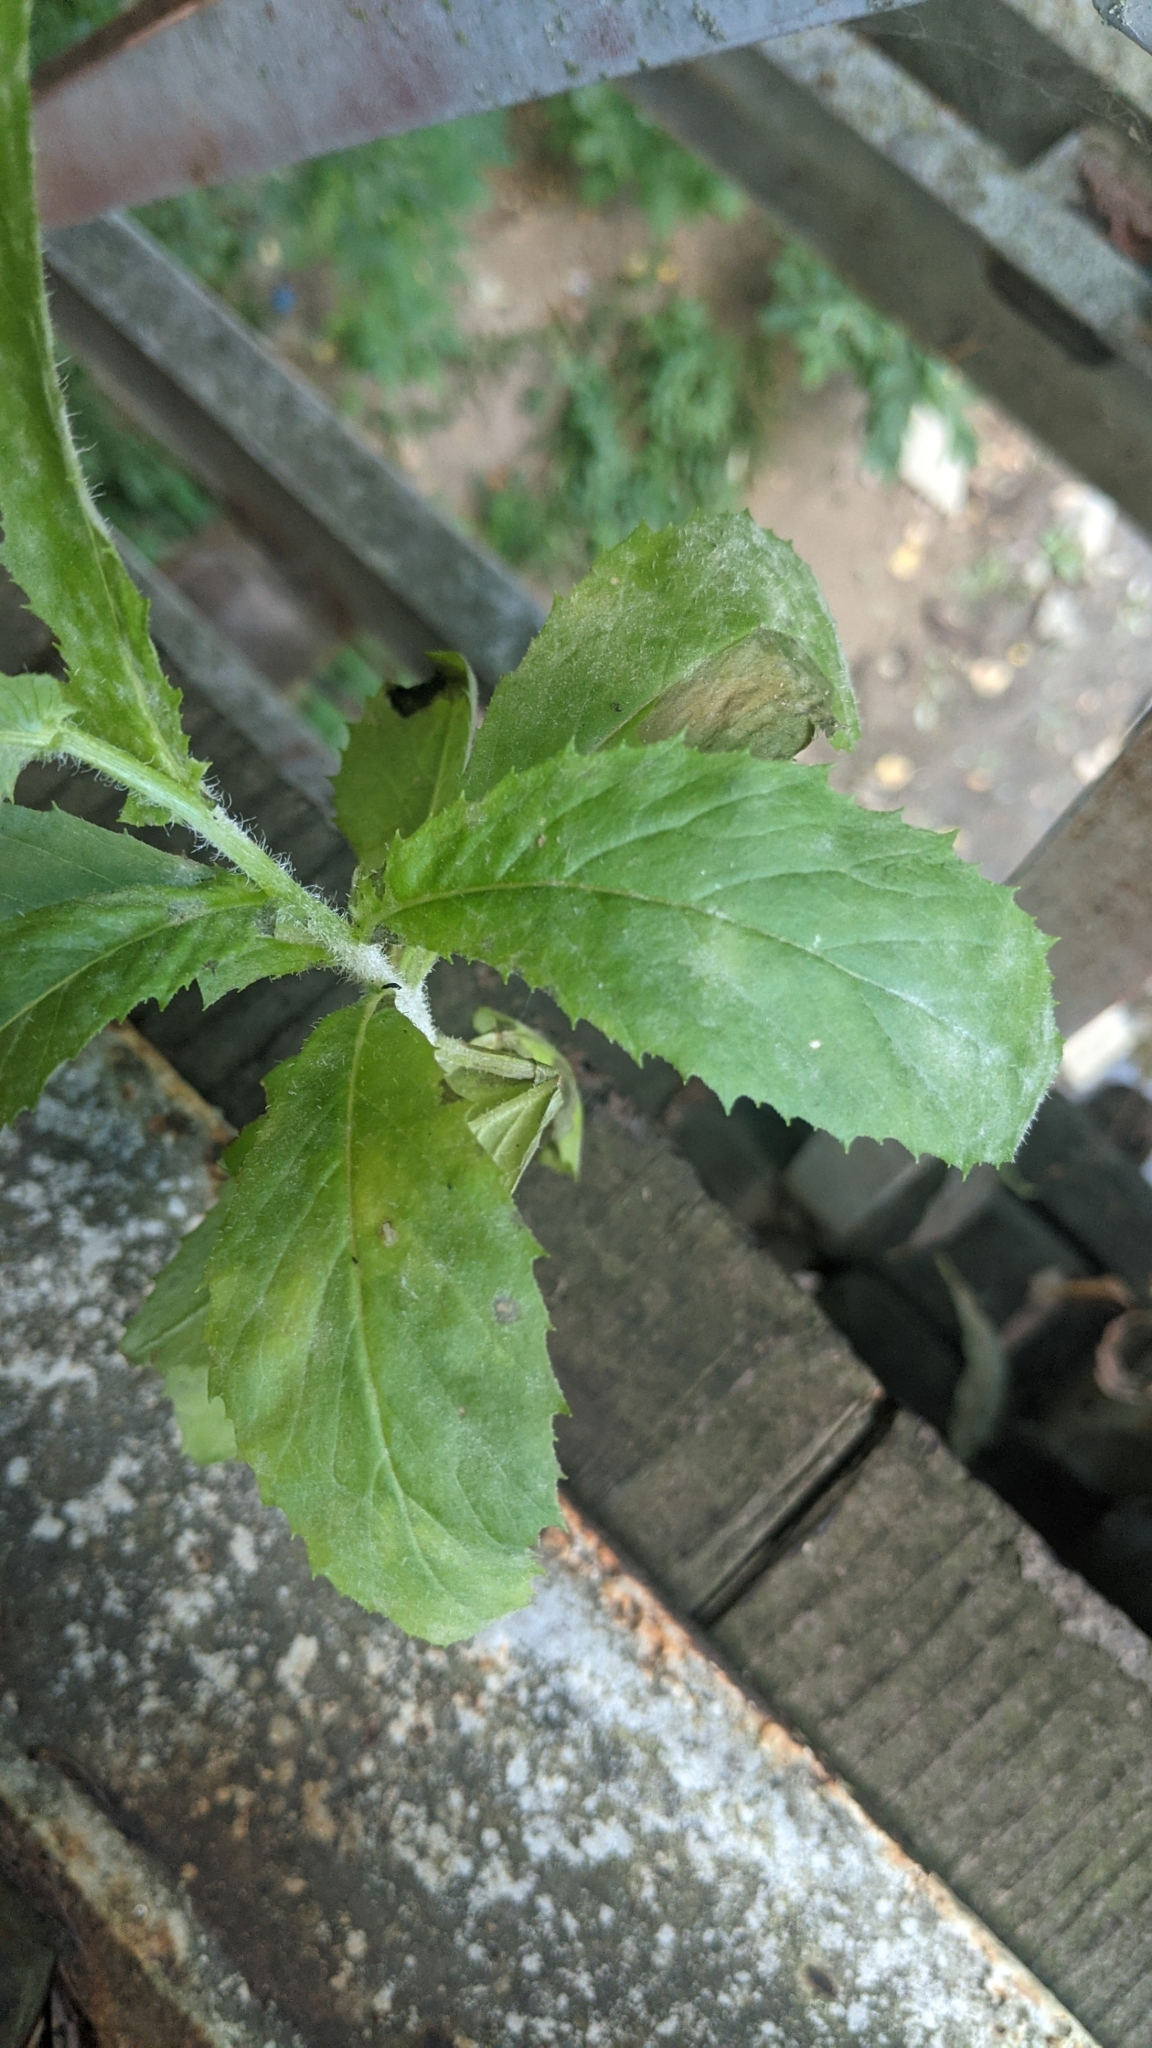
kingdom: Plantae
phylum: Tracheophyta
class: Magnoliopsida
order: Asterales
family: Asteraceae
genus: Erechtites
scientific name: Erechtites hieraciifolius
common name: American burnweed
